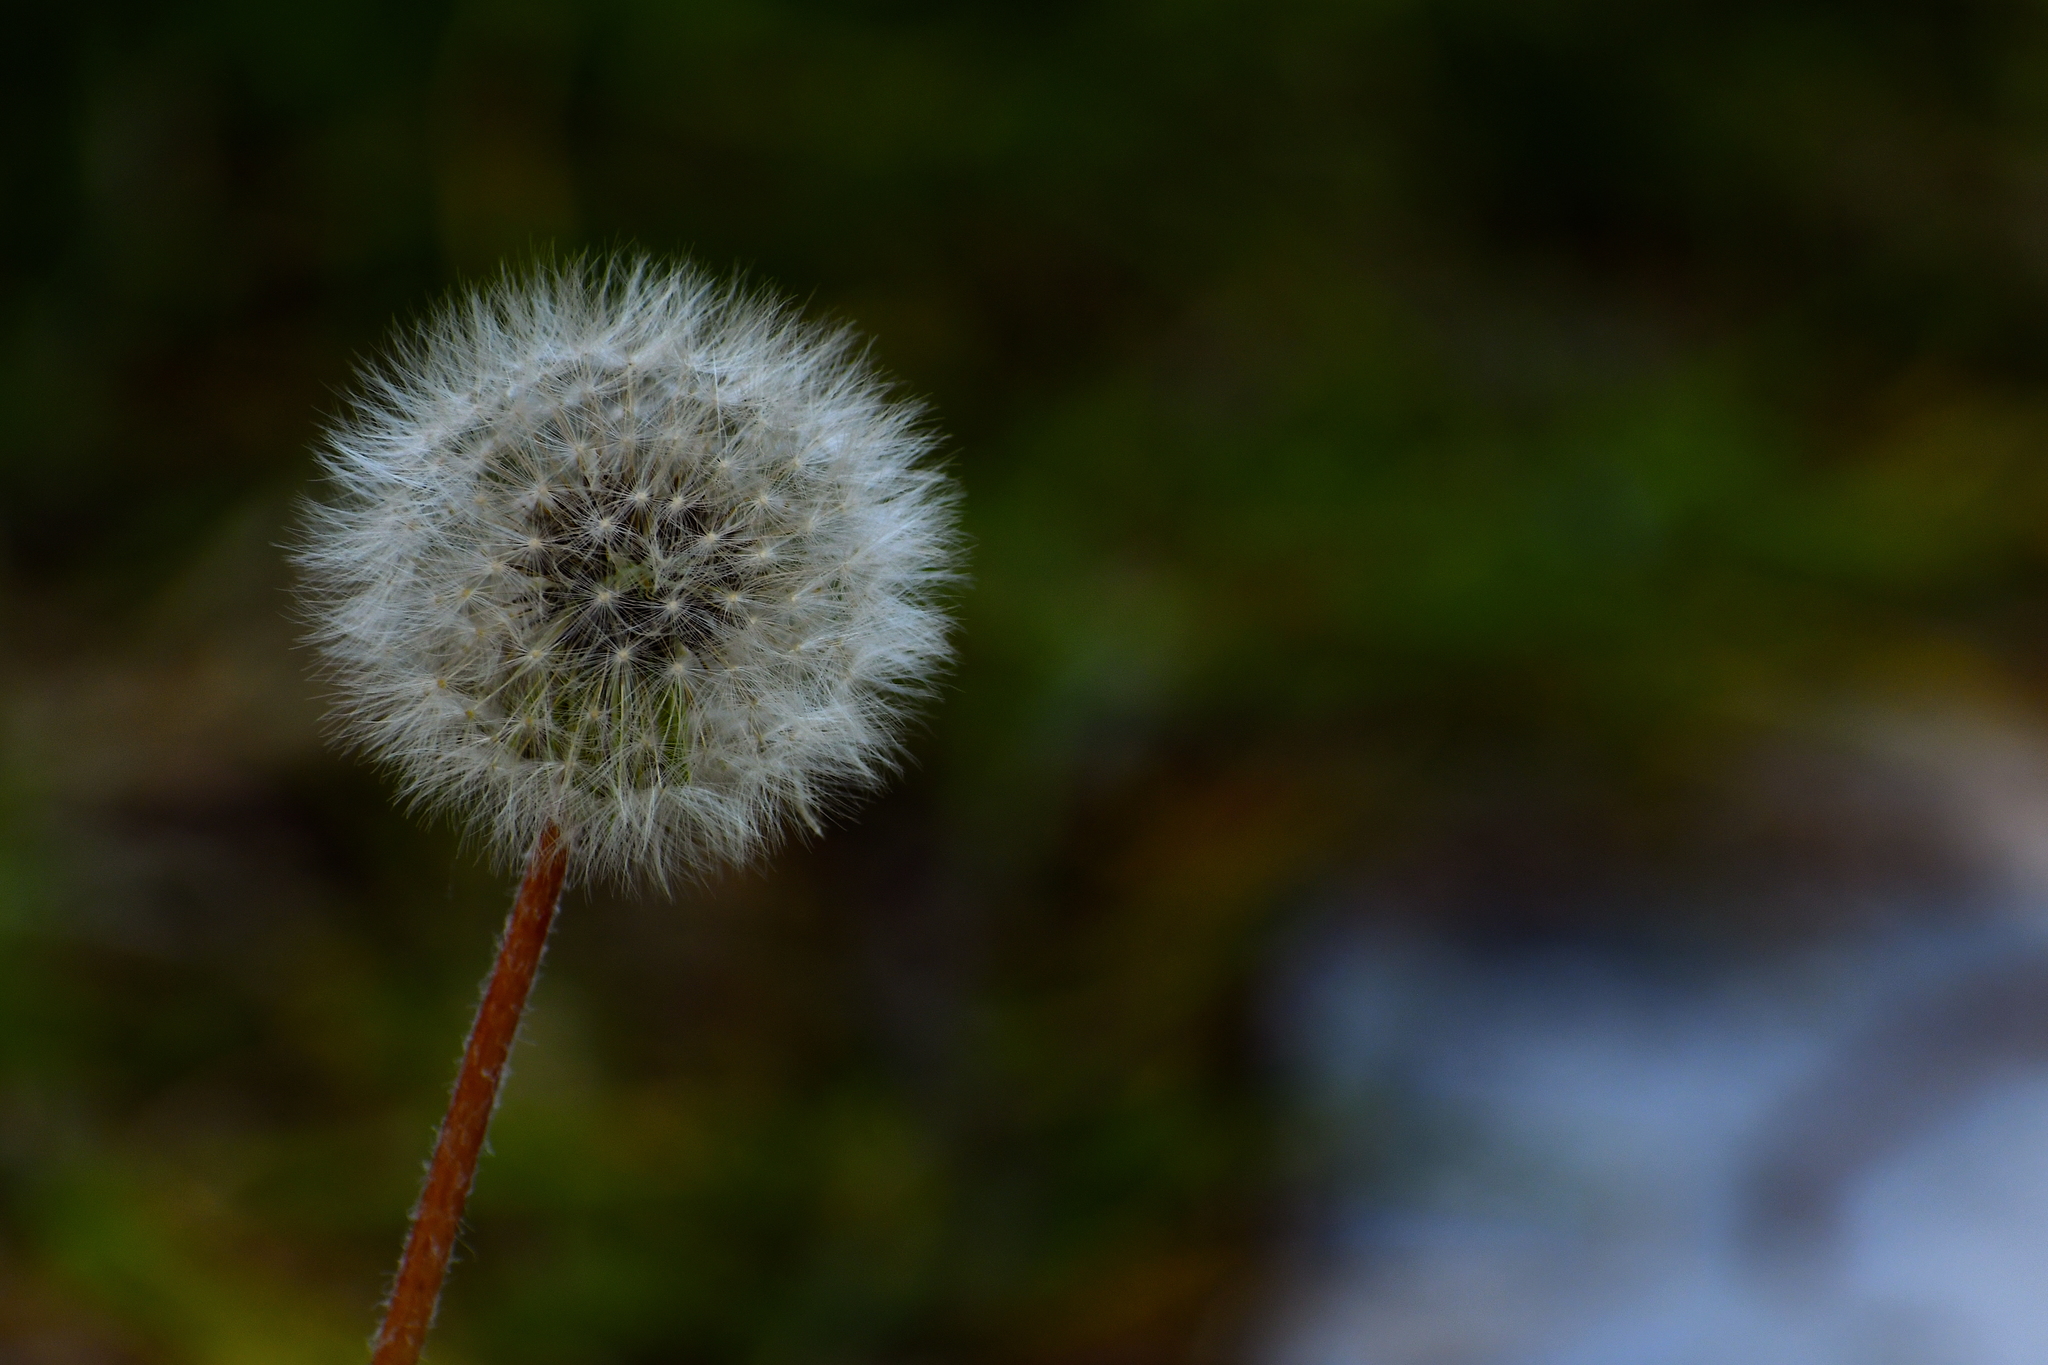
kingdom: Plantae
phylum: Tracheophyta
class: Magnoliopsida
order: Asterales
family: Asteraceae
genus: Taraxacum
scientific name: Taraxacum officinale
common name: Common dandelion
